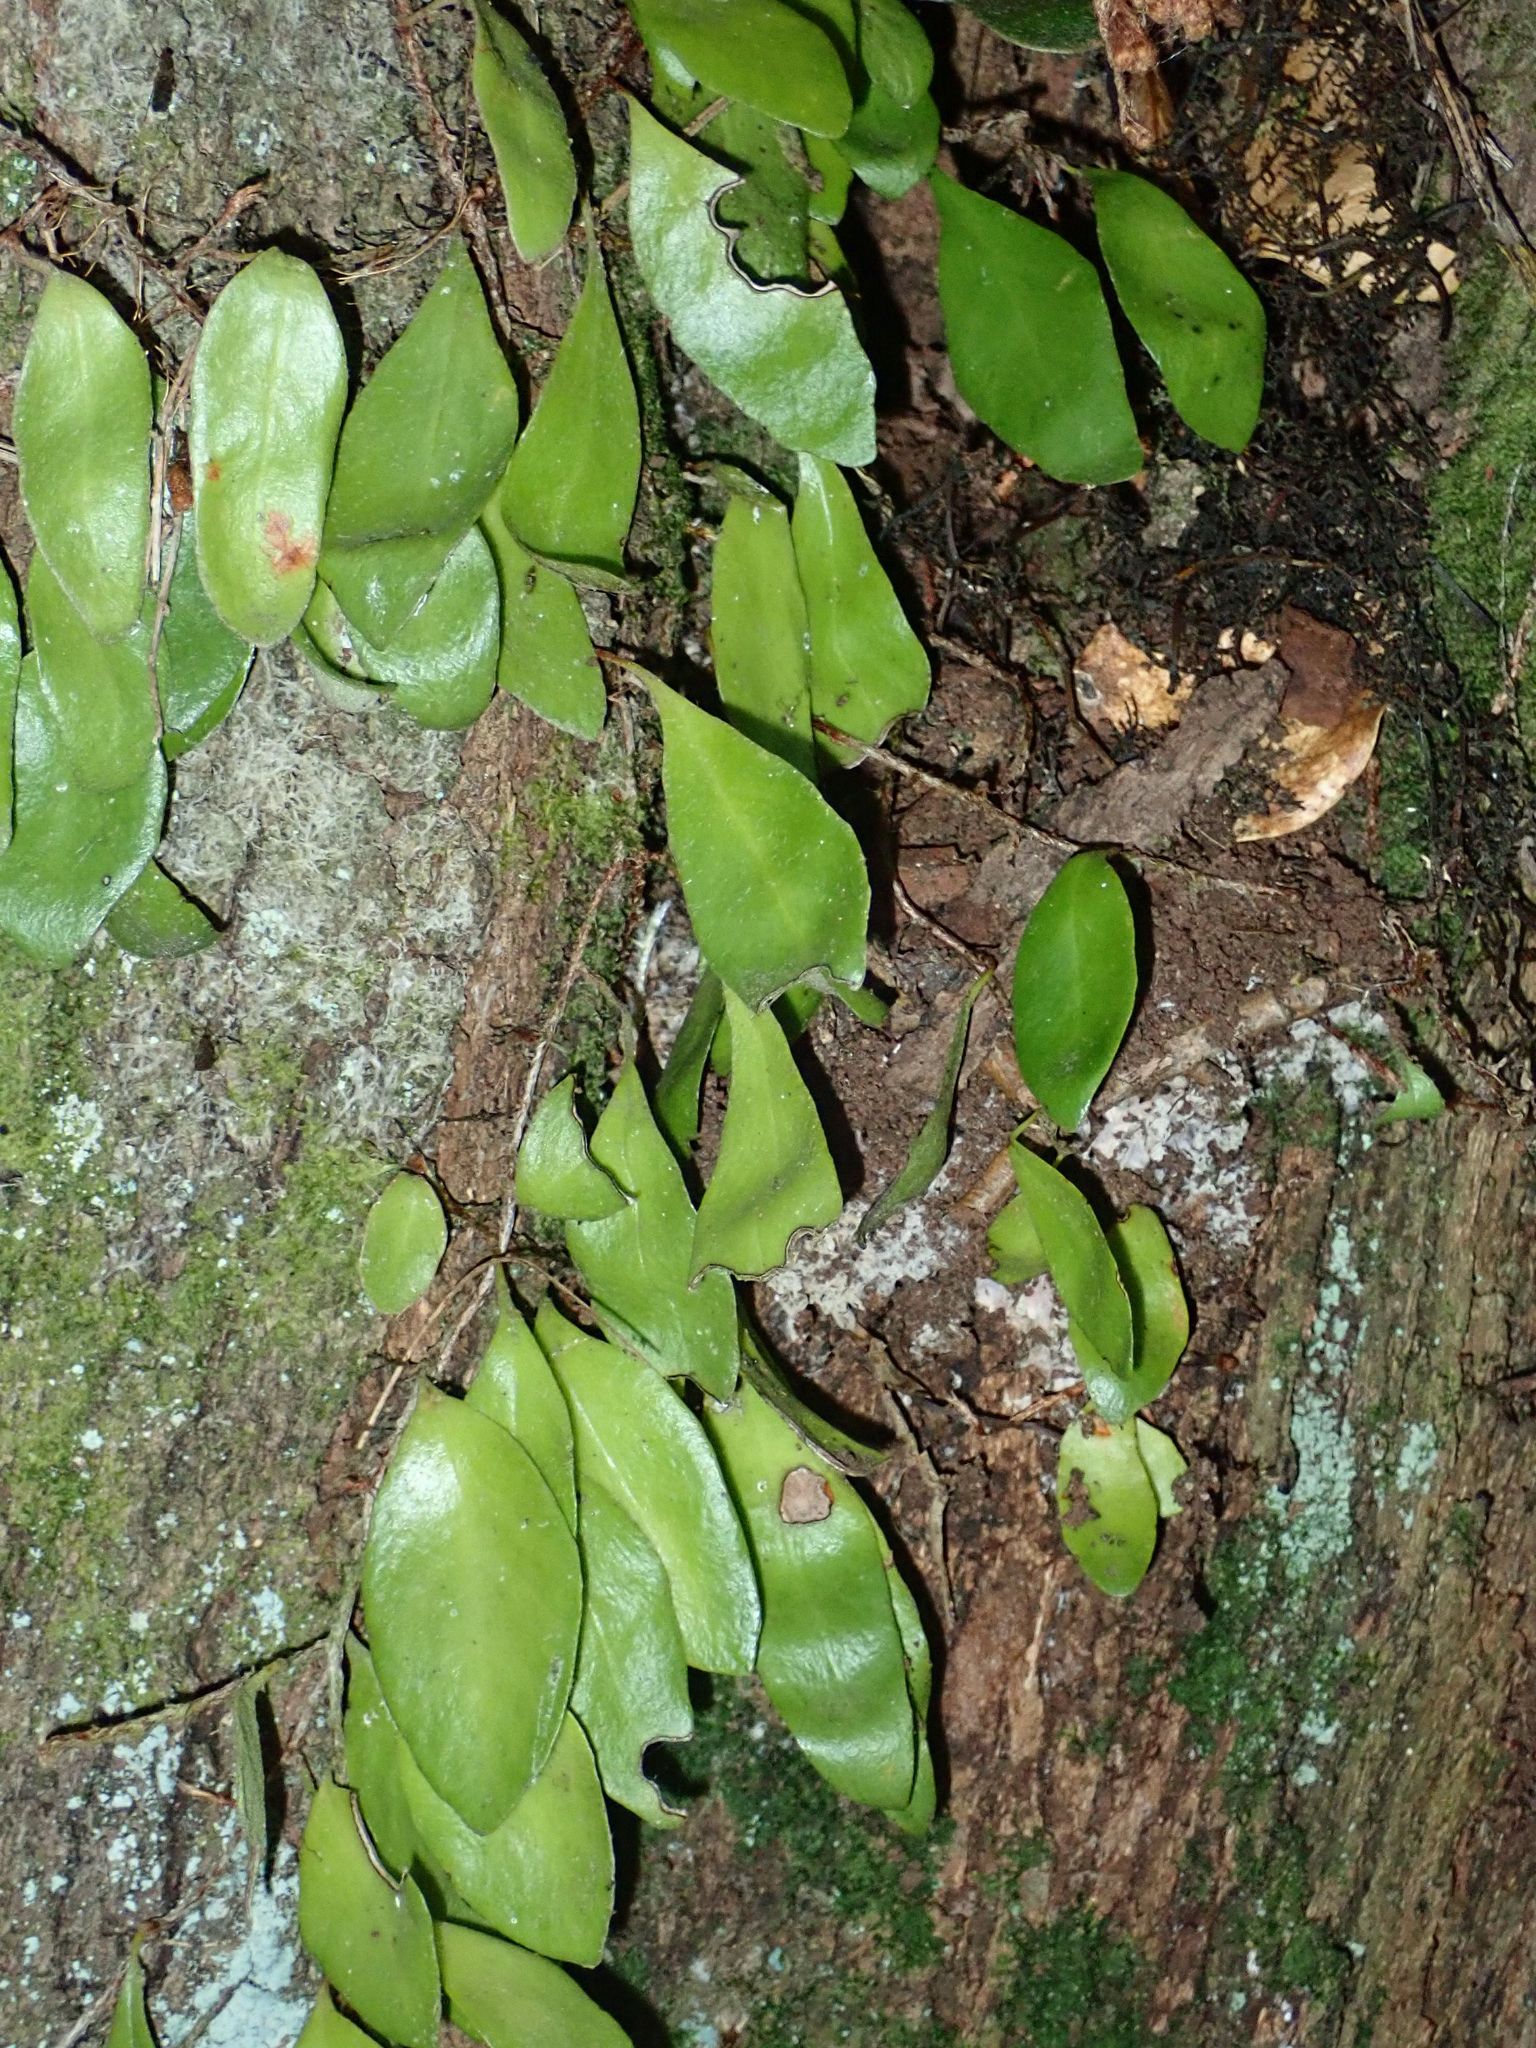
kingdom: Plantae
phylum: Tracheophyta
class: Polypodiopsida
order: Polypodiales
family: Polypodiaceae
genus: Pyrrosia
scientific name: Pyrrosia eleagnifolia
